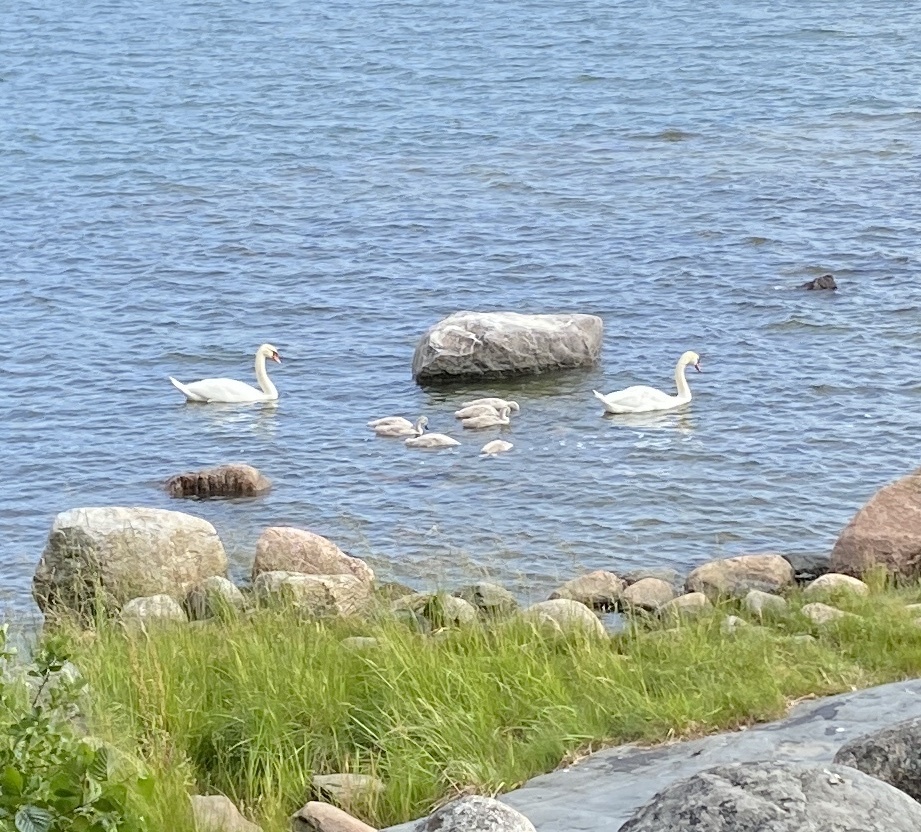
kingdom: Animalia
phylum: Chordata
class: Aves
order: Anseriformes
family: Anatidae
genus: Cygnus
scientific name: Cygnus olor
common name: Mute swan
